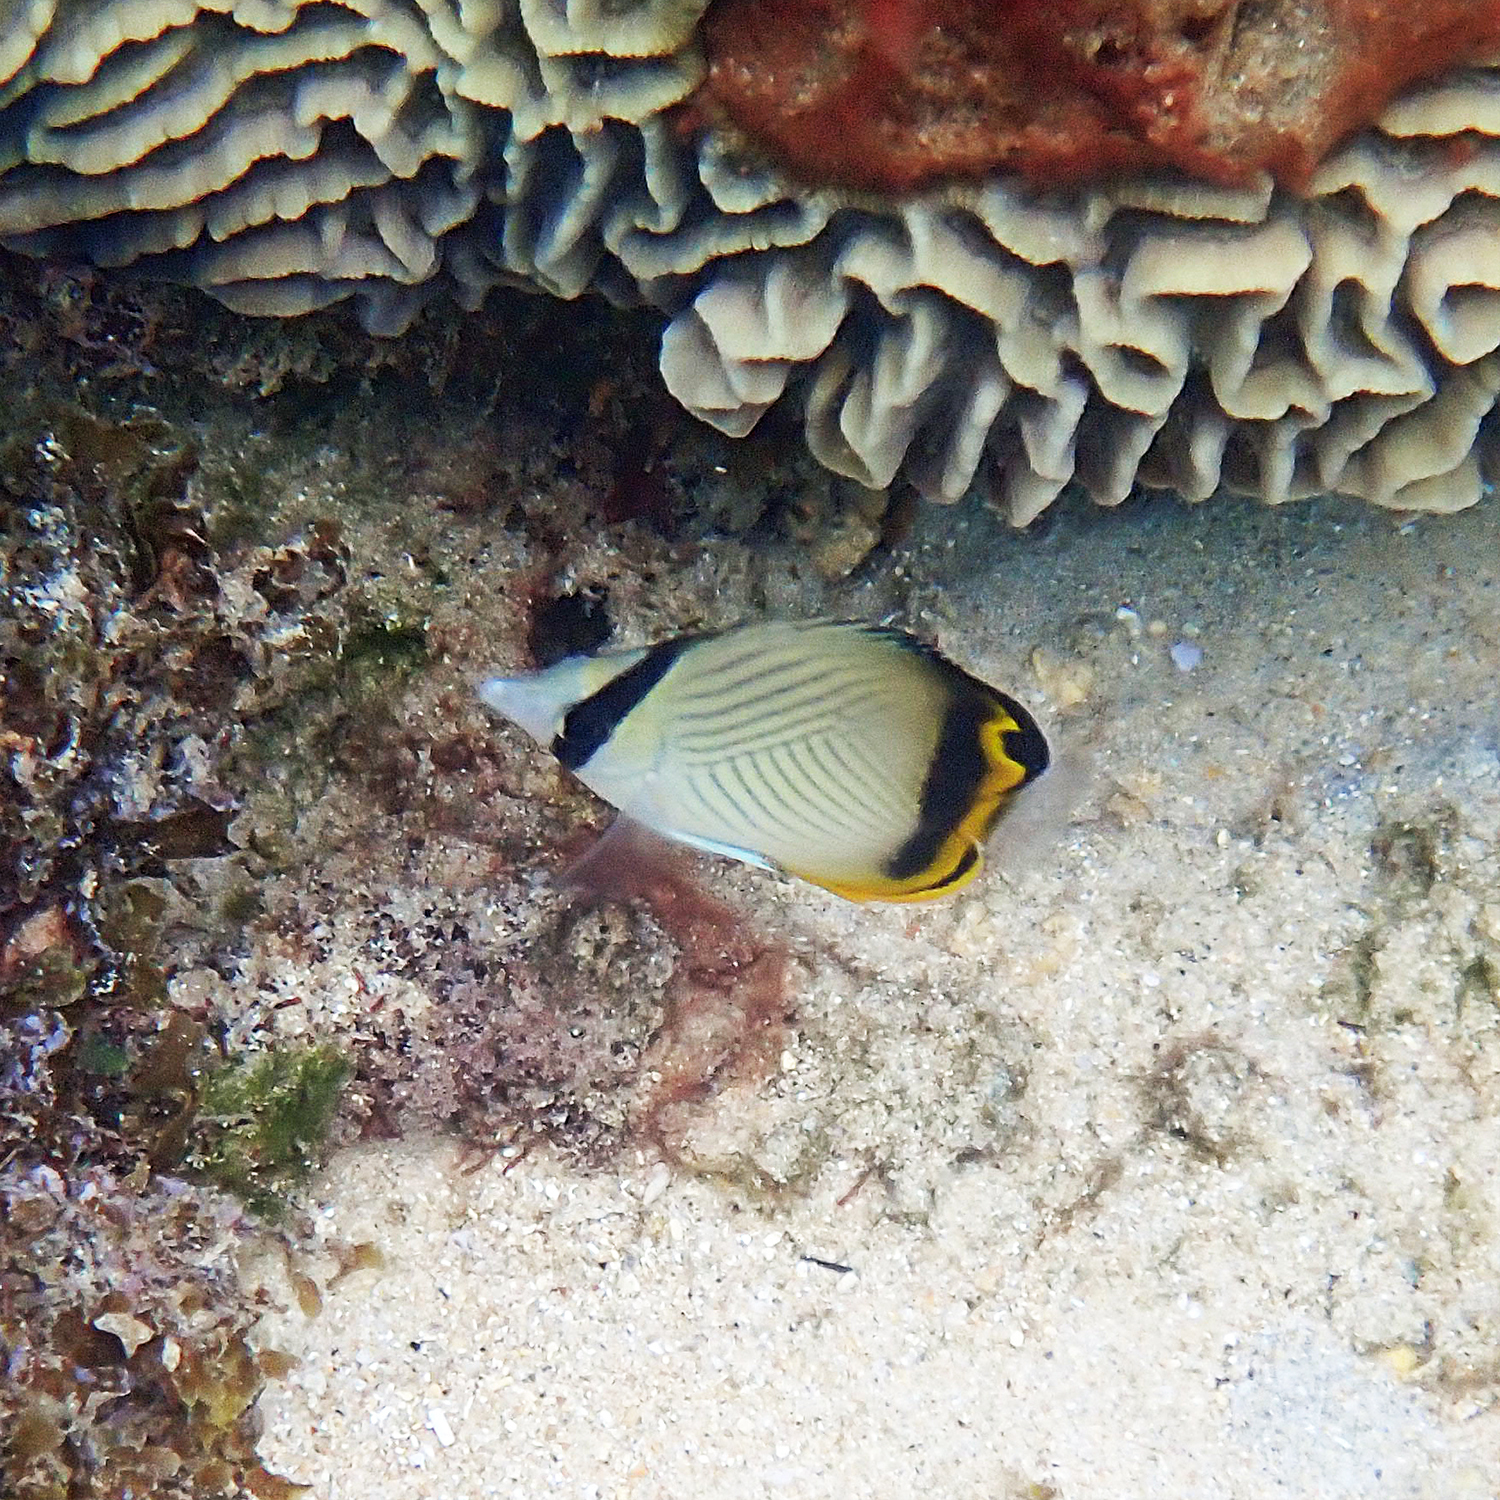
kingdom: Animalia
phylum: Chordata
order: Perciformes
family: Chaetodontidae
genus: Chaetodon
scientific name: Chaetodon vagabundus
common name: Vagabond butterflyfish
